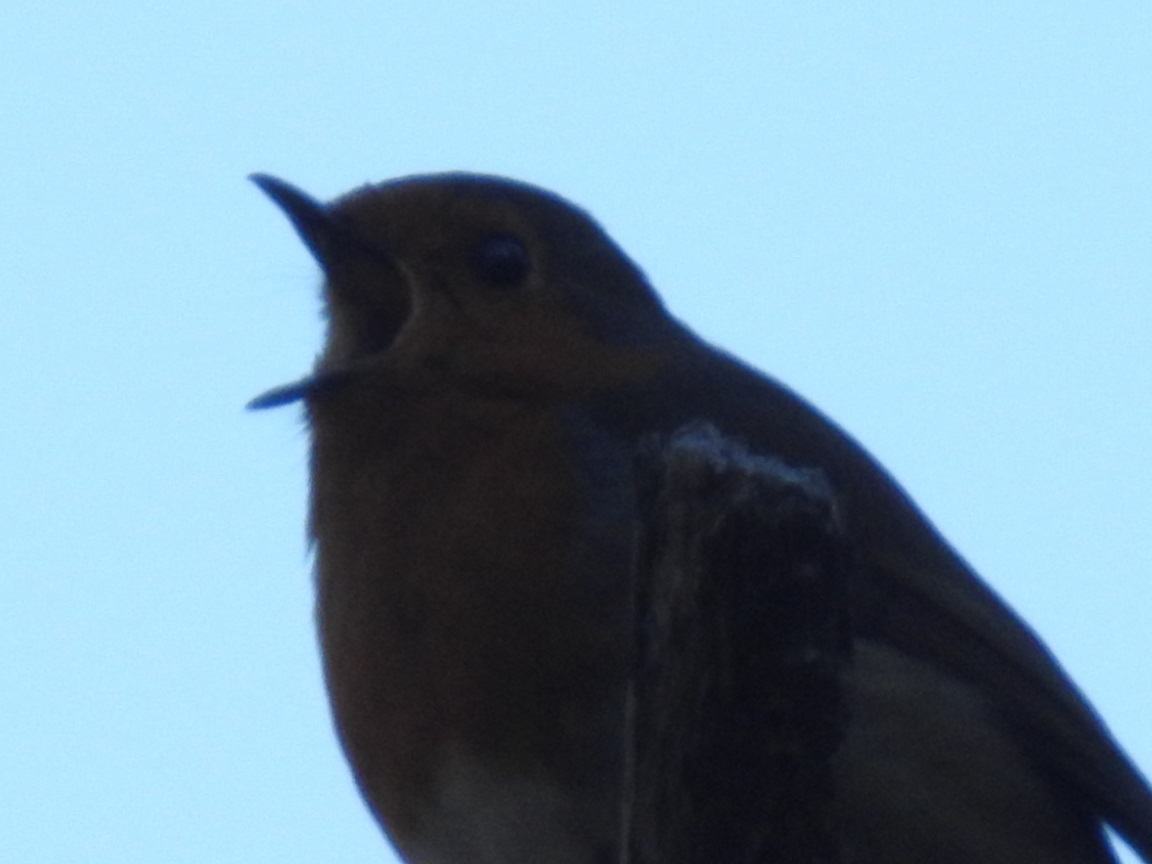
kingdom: Animalia
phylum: Chordata
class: Aves
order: Passeriformes
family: Muscicapidae
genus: Erithacus
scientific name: Erithacus rubecula
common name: European robin
